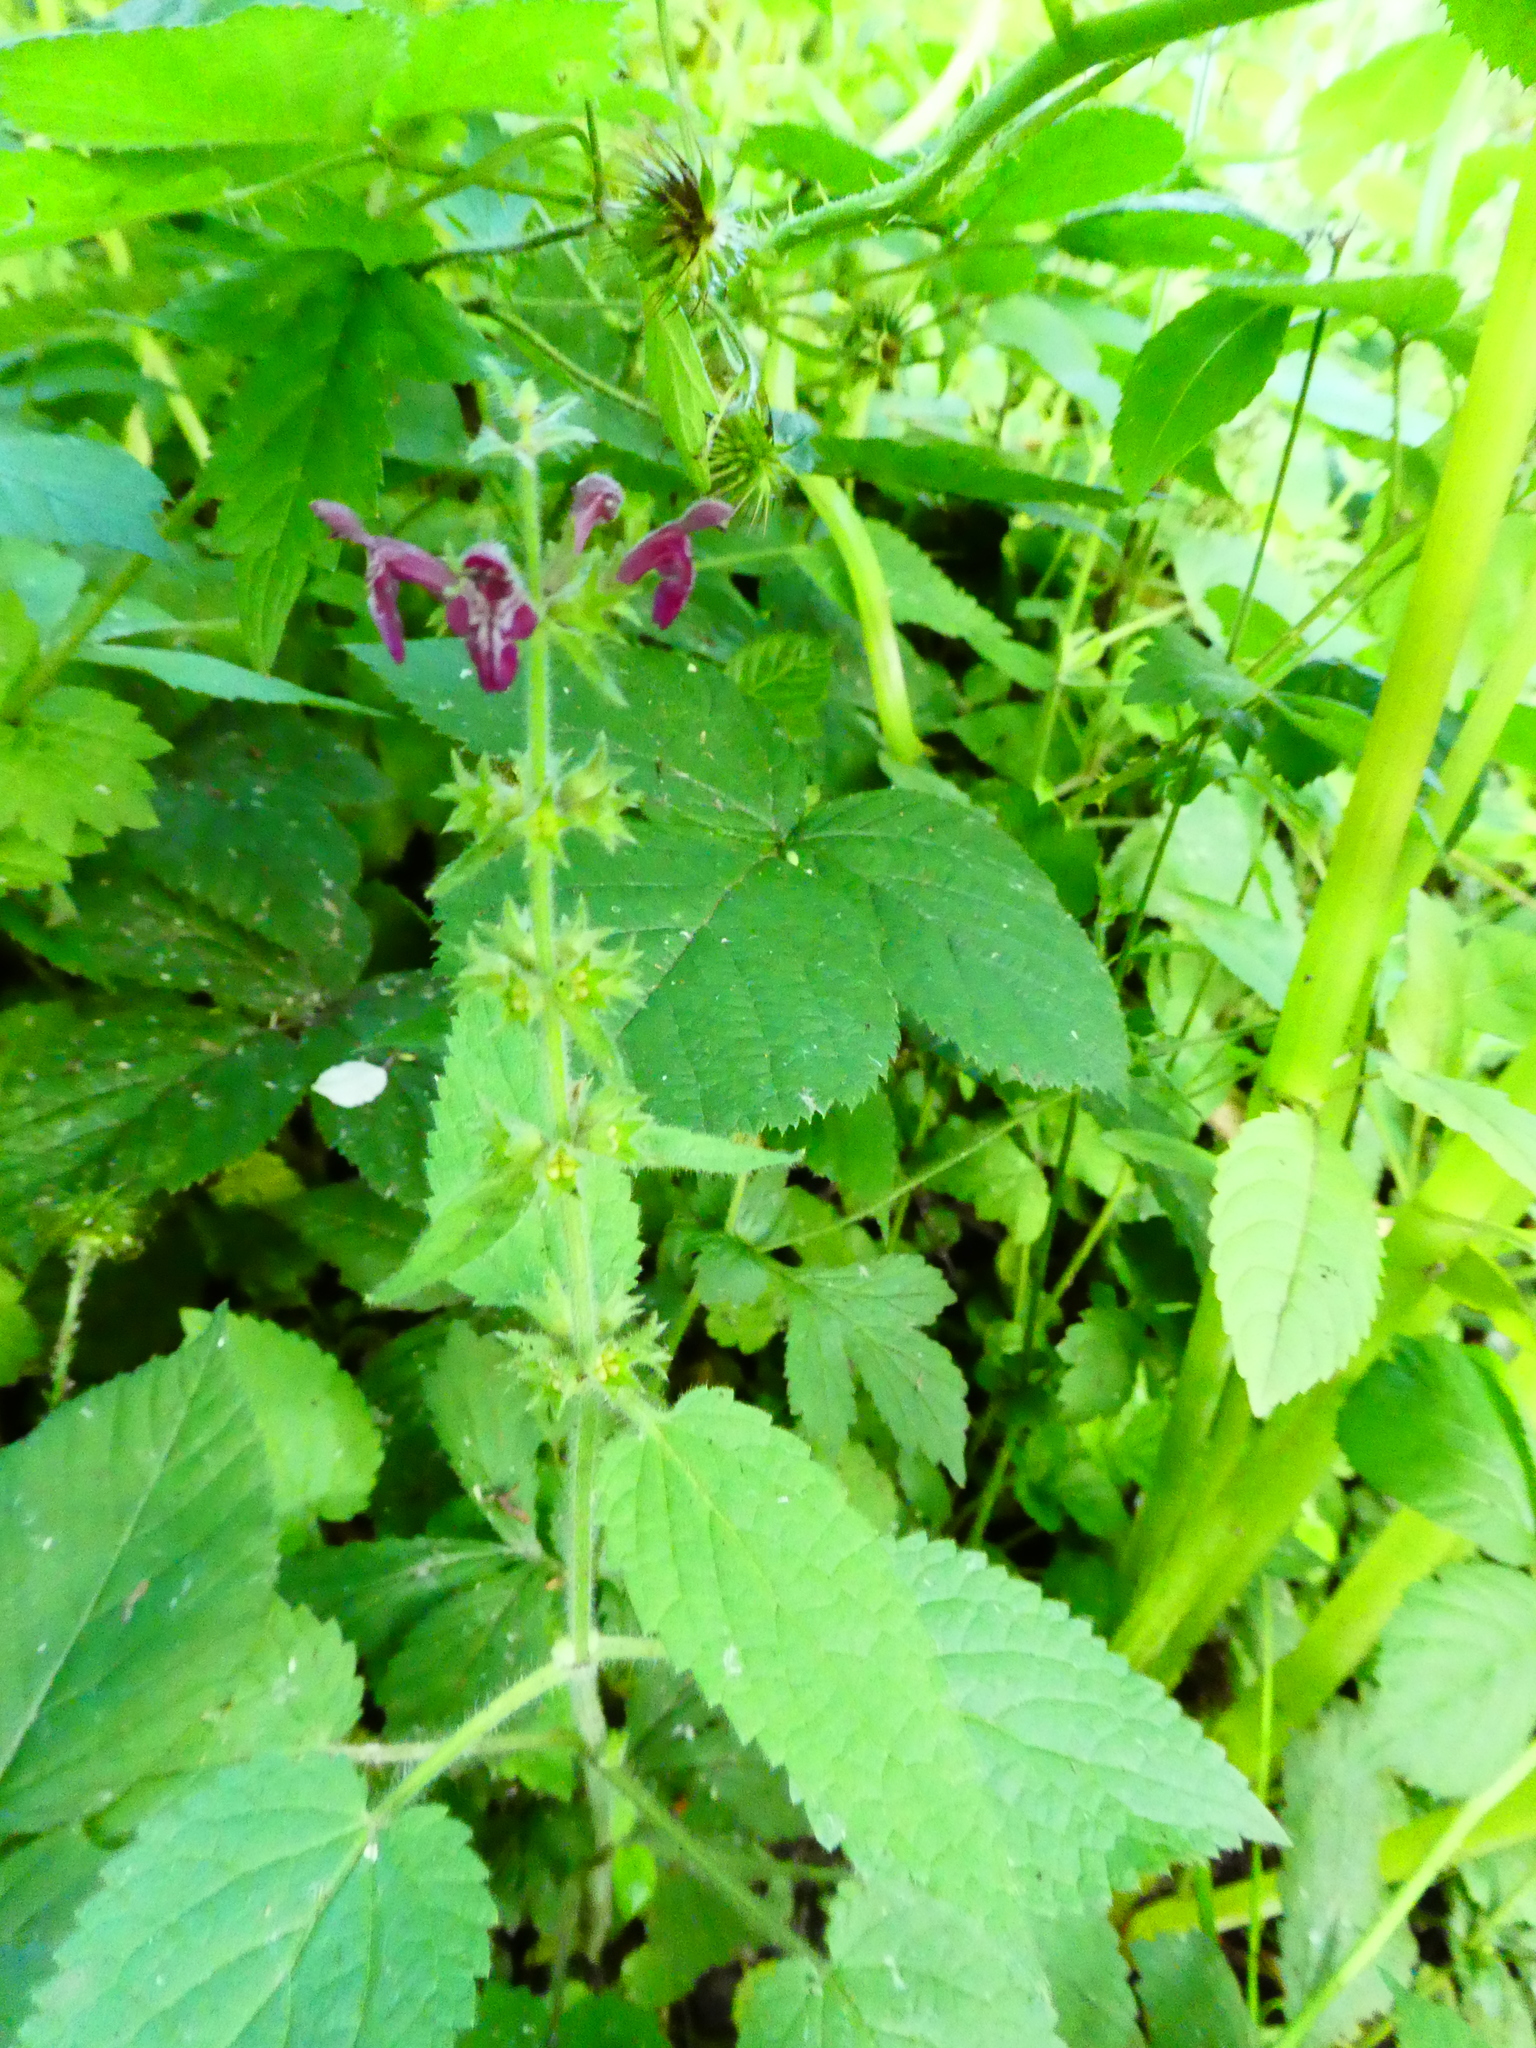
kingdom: Plantae
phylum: Tracheophyta
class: Magnoliopsida
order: Lamiales
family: Lamiaceae
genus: Stachys
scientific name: Stachys sylvatica
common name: Hedge woundwort
